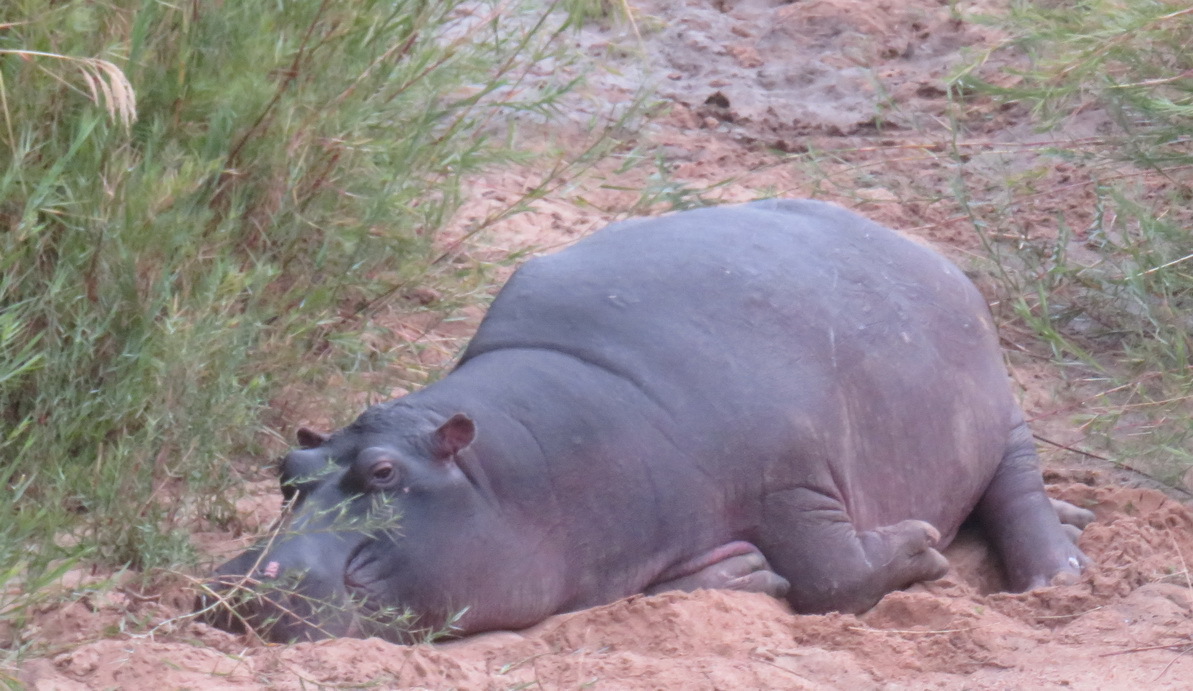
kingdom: Animalia
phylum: Chordata
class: Mammalia
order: Artiodactyla
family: Hippopotamidae
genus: Hippopotamus
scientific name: Hippopotamus amphibius
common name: Common hippopotamus
